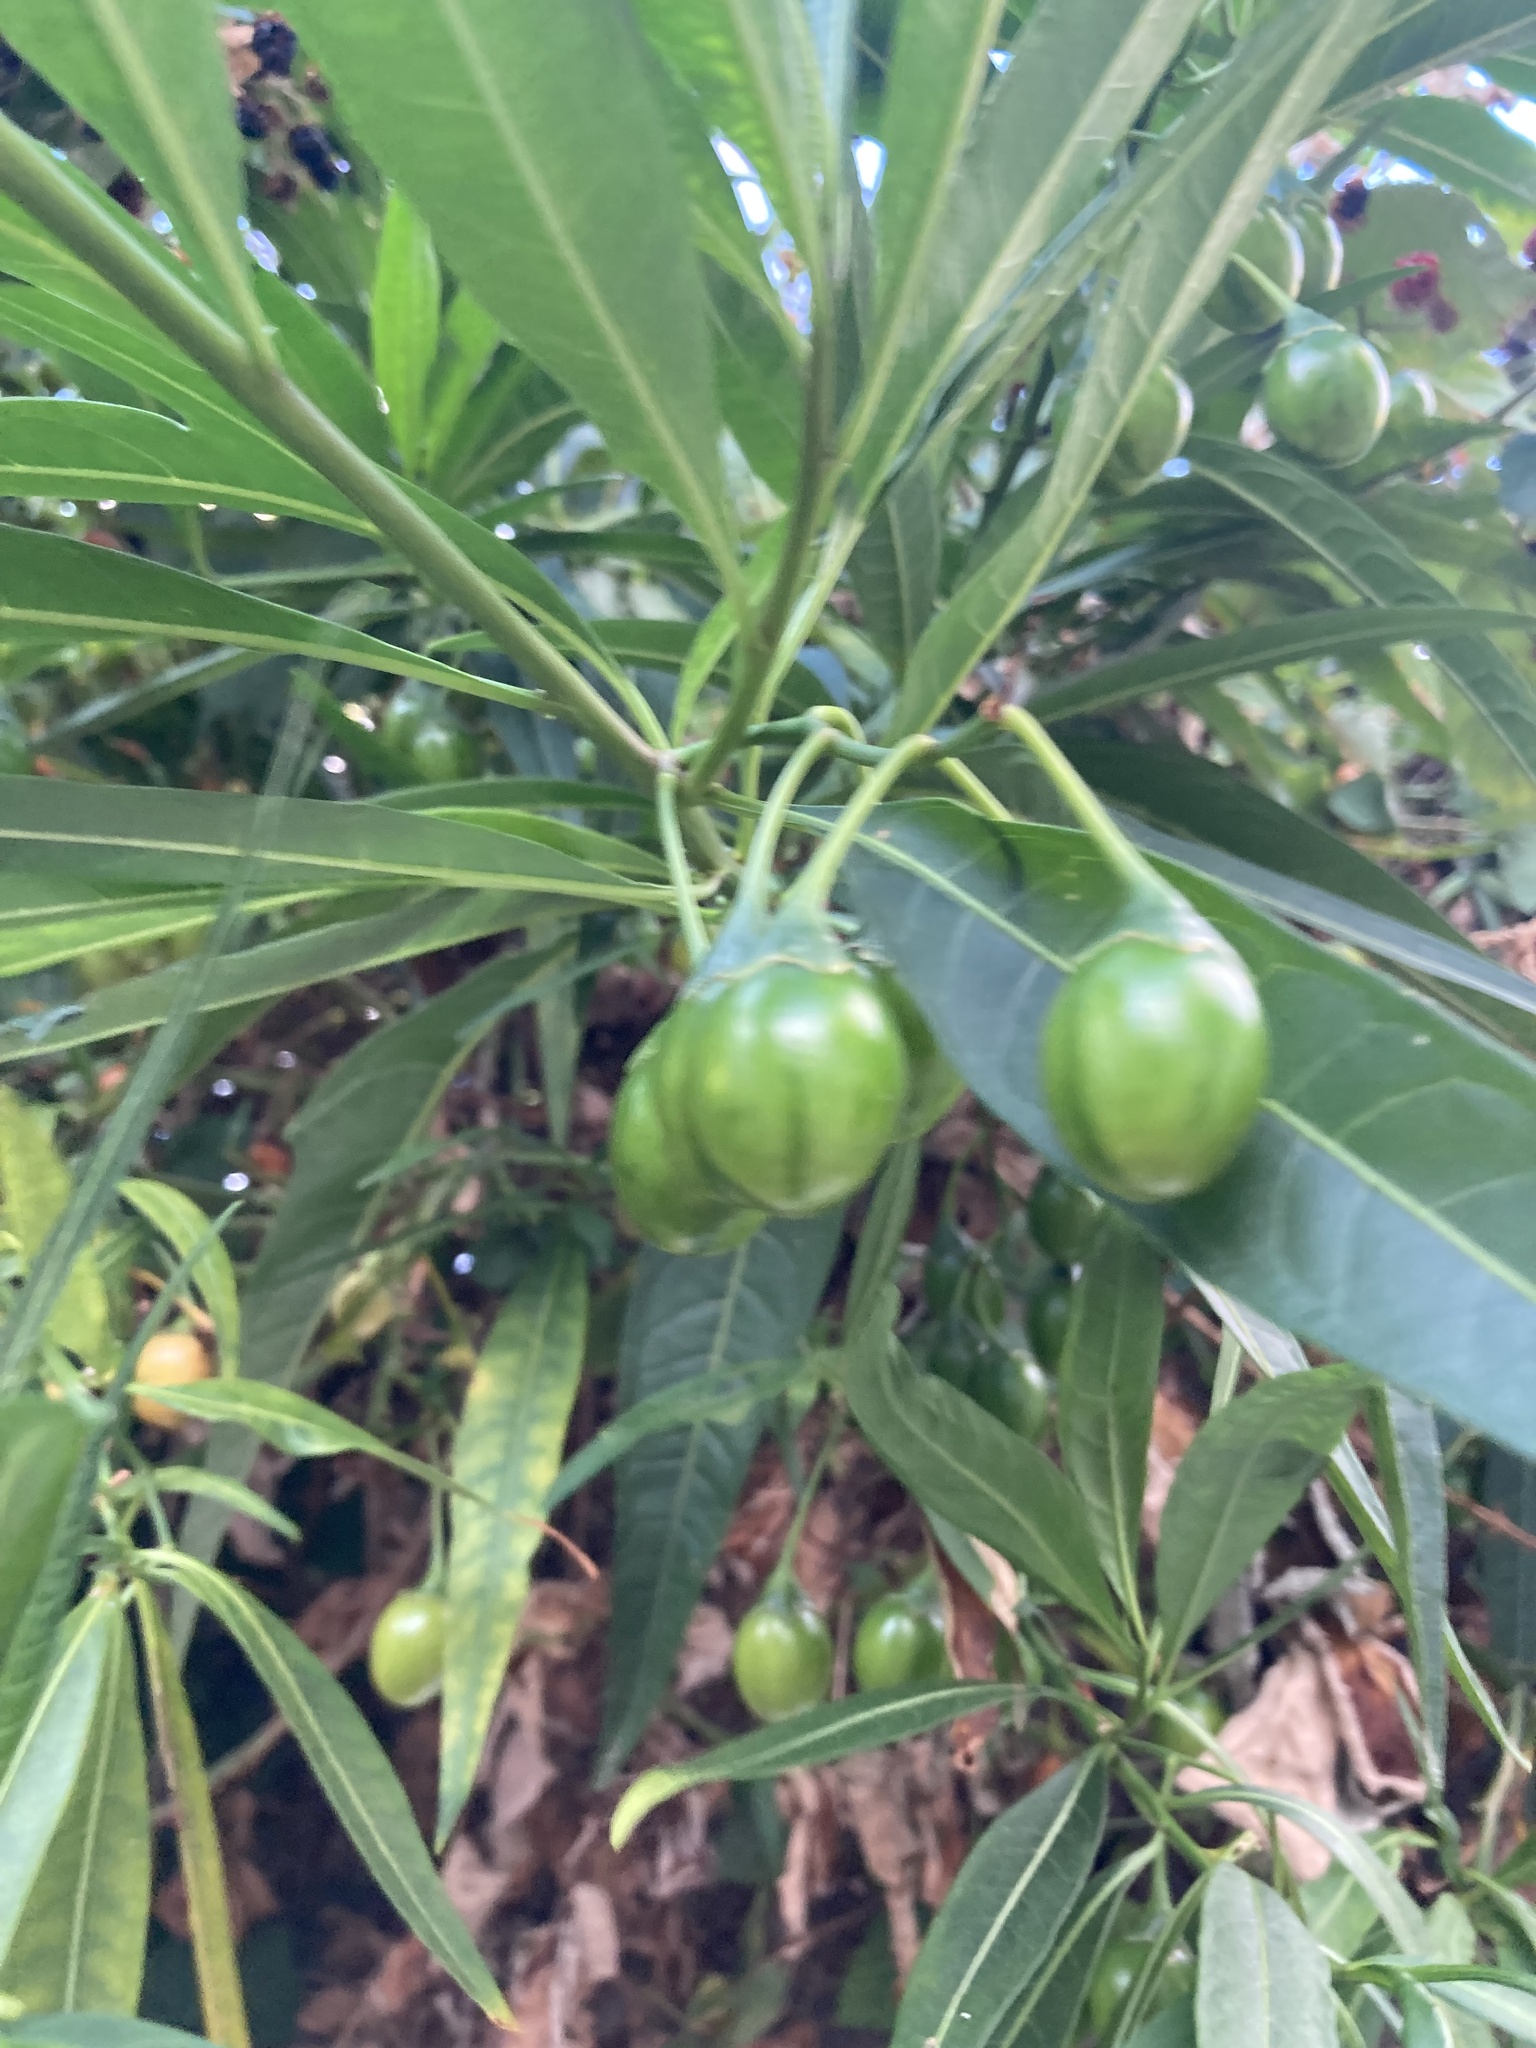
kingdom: Plantae
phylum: Tracheophyta
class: Magnoliopsida
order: Solanales
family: Solanaceae
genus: Solanum
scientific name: Solanum laciniatum
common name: Kangaroo-apple
